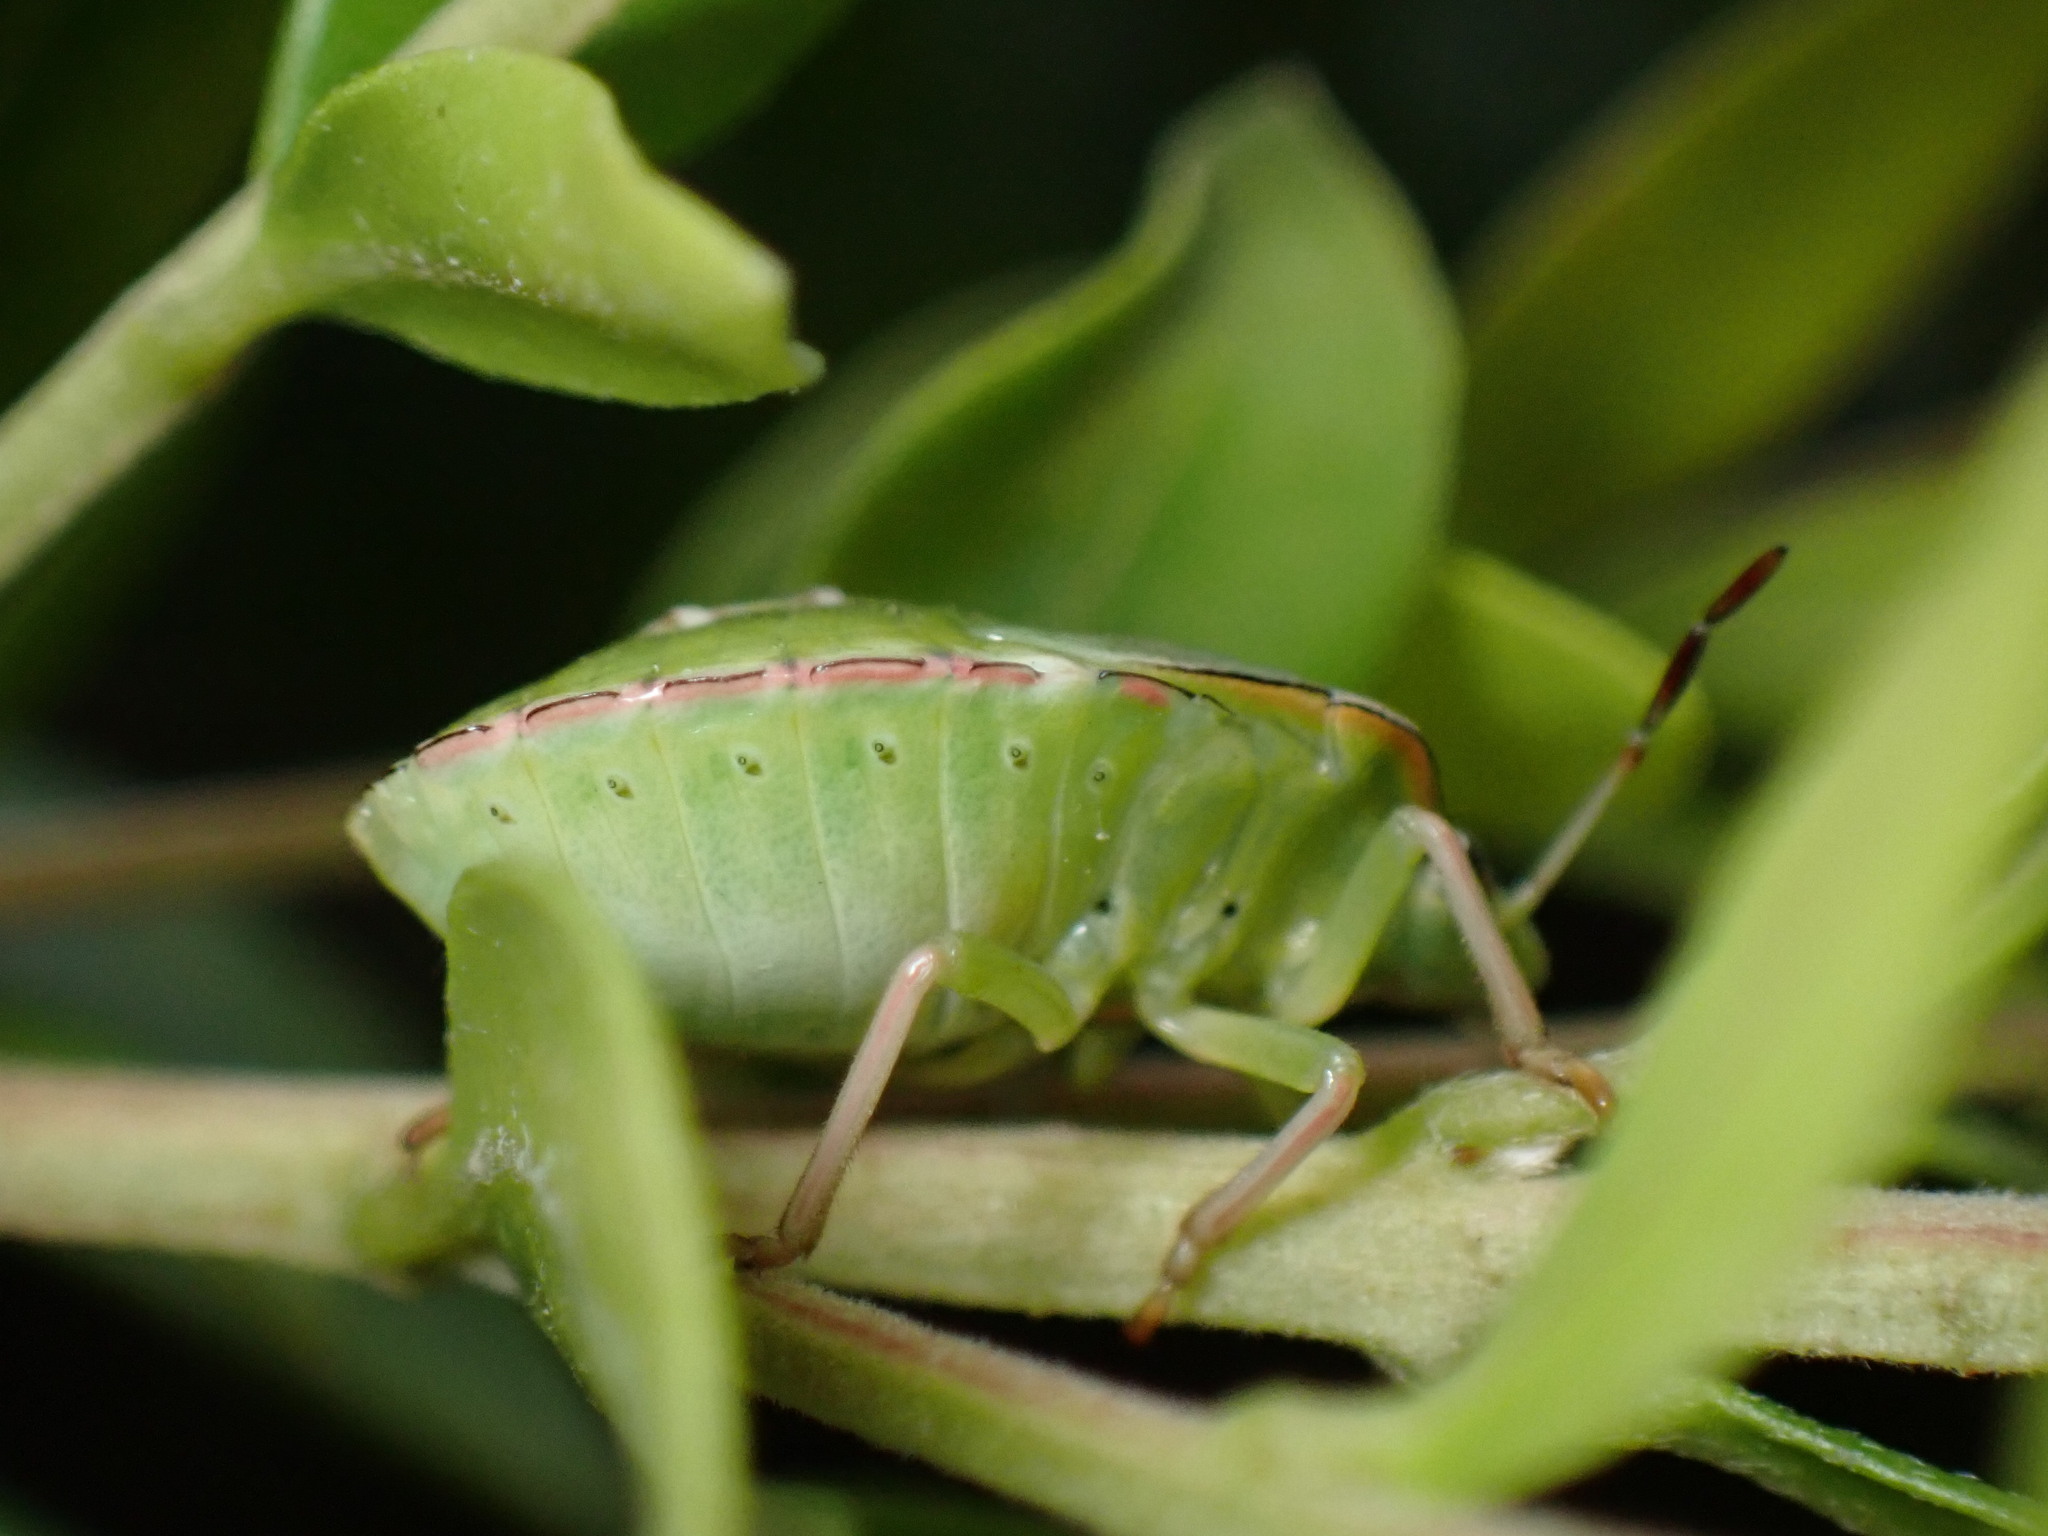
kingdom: Animalia
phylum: Arthropoda
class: Insecta
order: Hemiptera
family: Pentatomidae
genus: Nezara
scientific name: Nezara viridula
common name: Southern green stink bug
